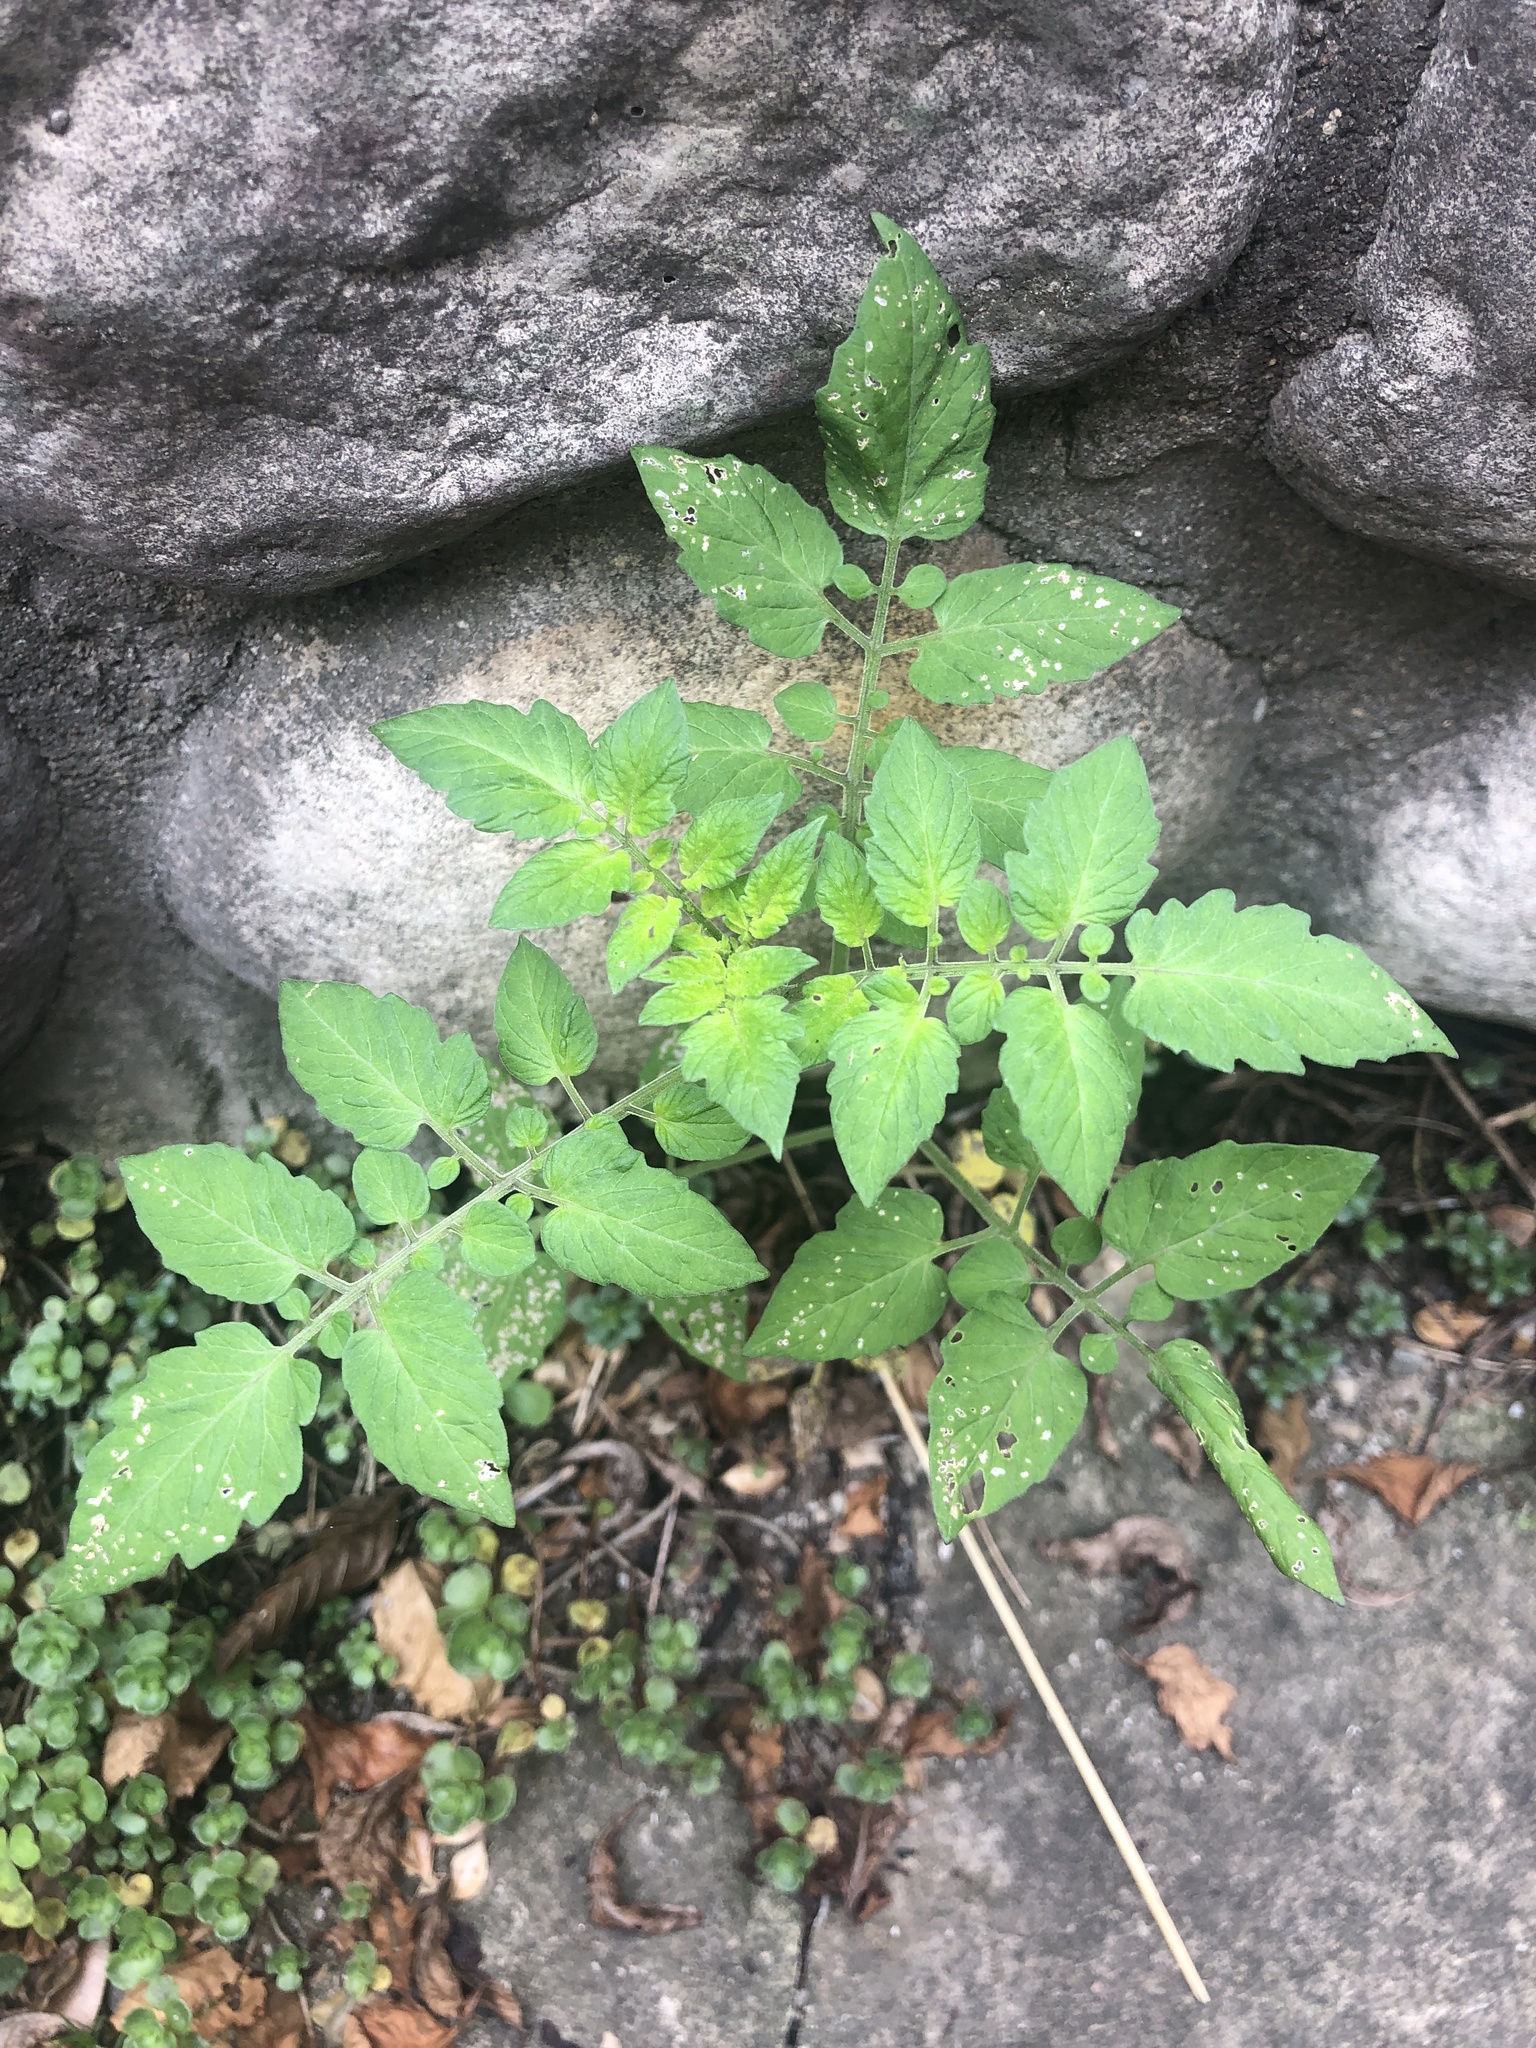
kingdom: Plantae
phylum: Tracheophyta
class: Magnoliopsida
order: Solanales
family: Solanaceae
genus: Solanum
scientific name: Solanum lycopersicum
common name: Garden tomato
